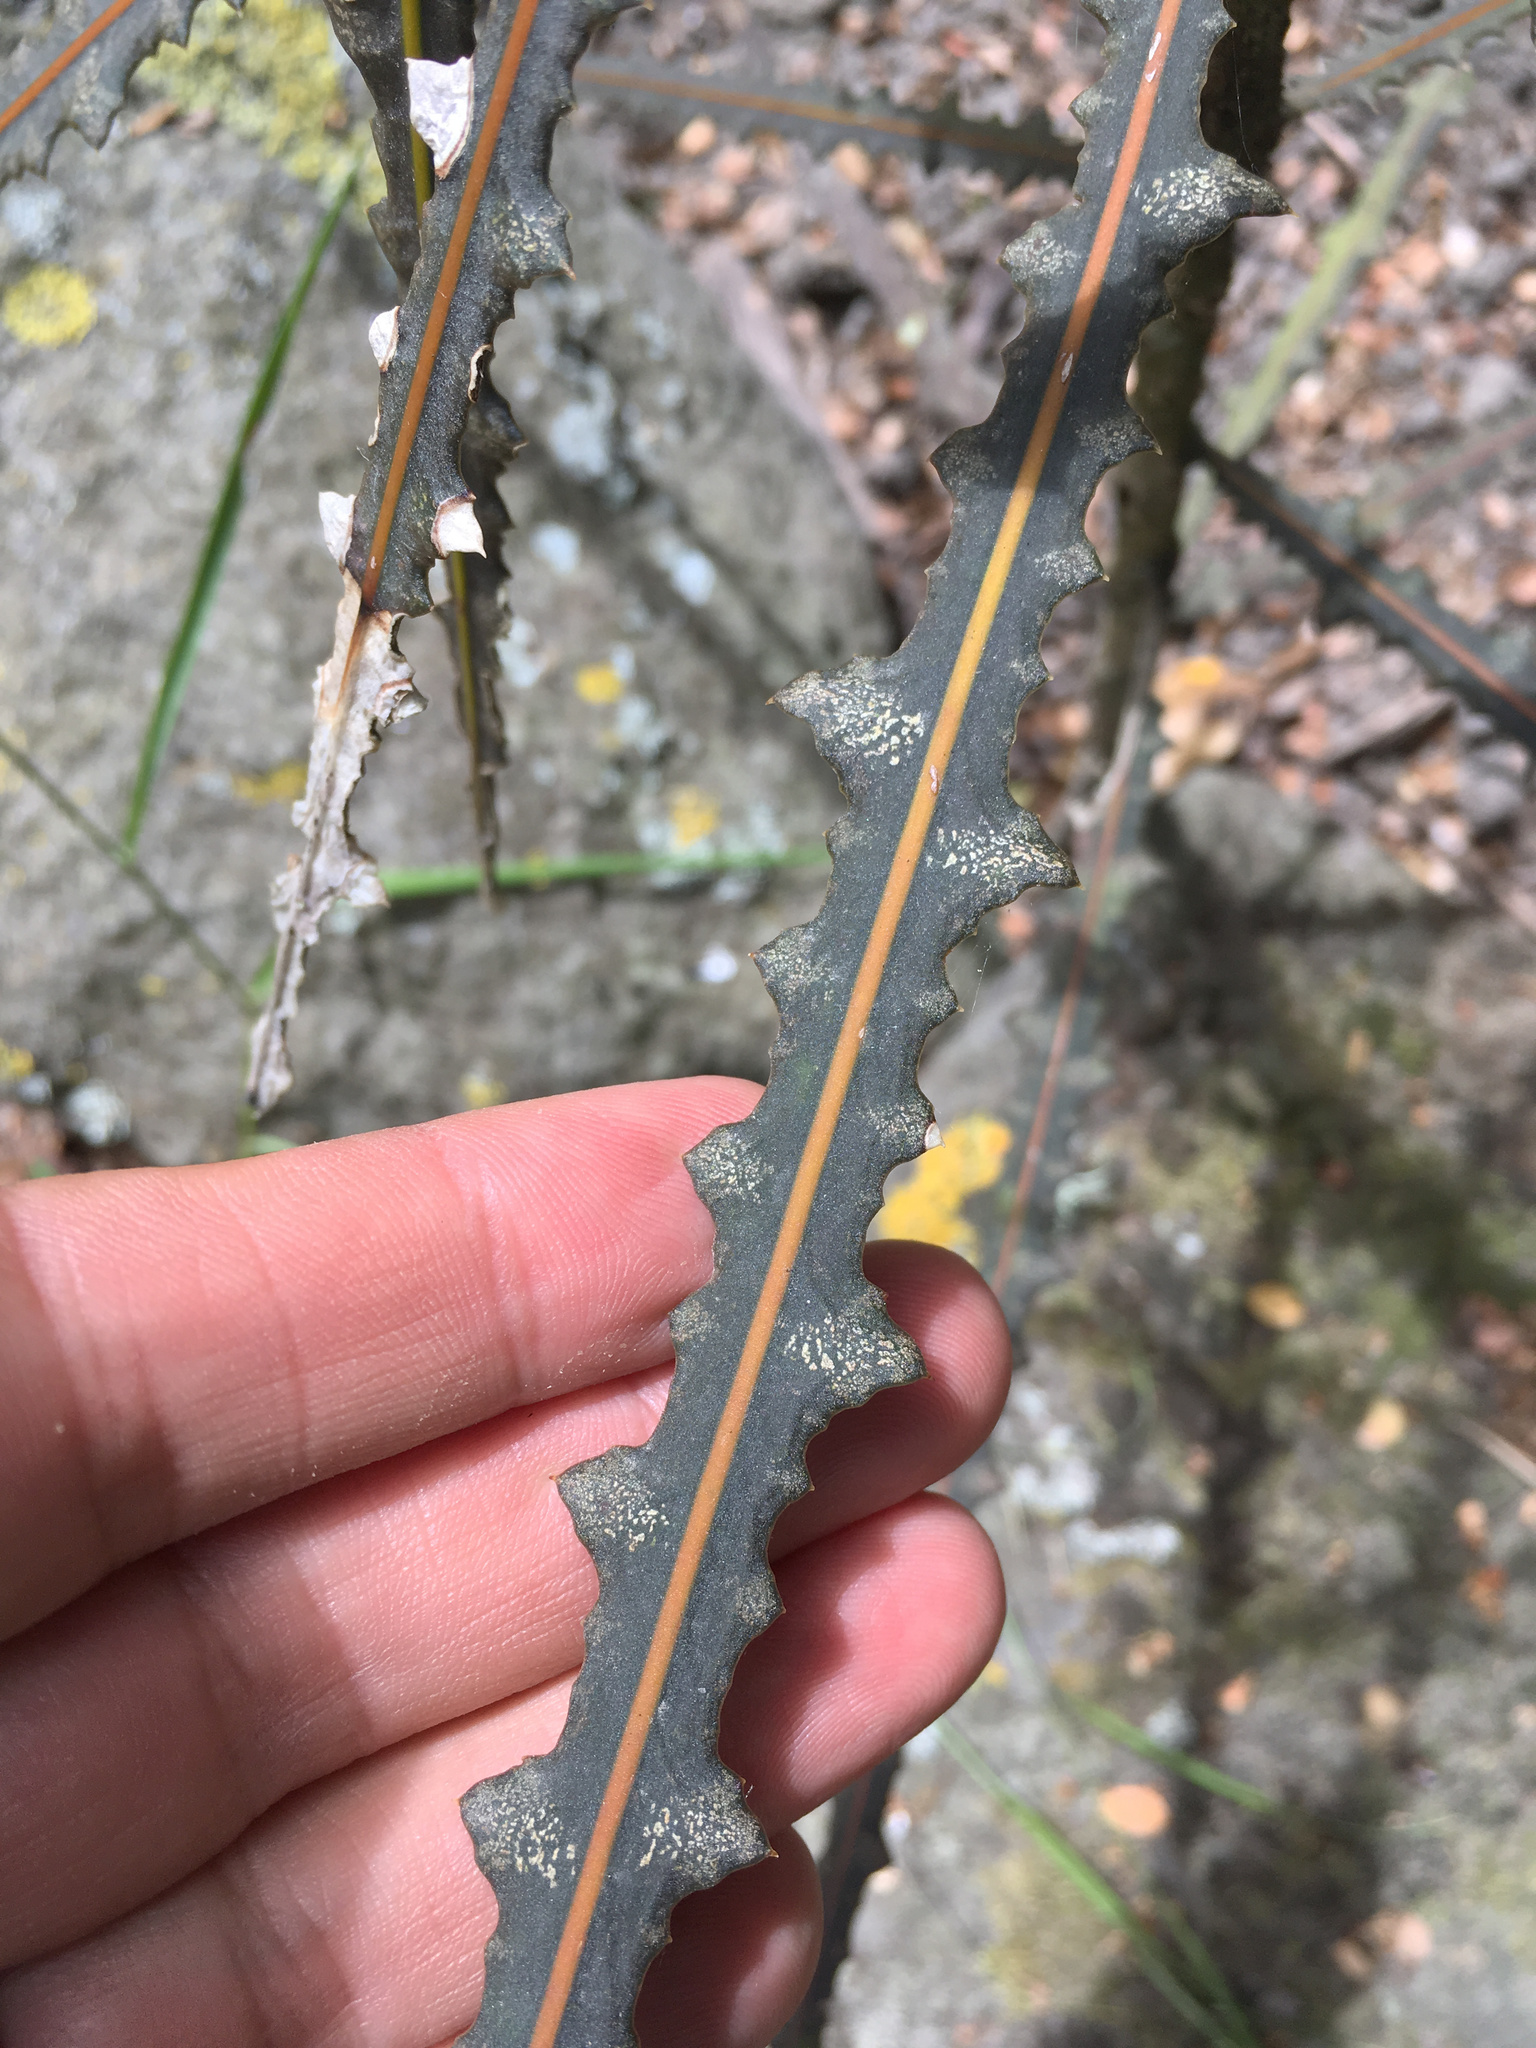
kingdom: Plantae
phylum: Tracheophyta
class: Magnoliopsida
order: Apiales
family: Araliaceae
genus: Pseudopanax
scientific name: Pseudopanax ferox
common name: Fierce lancewood
